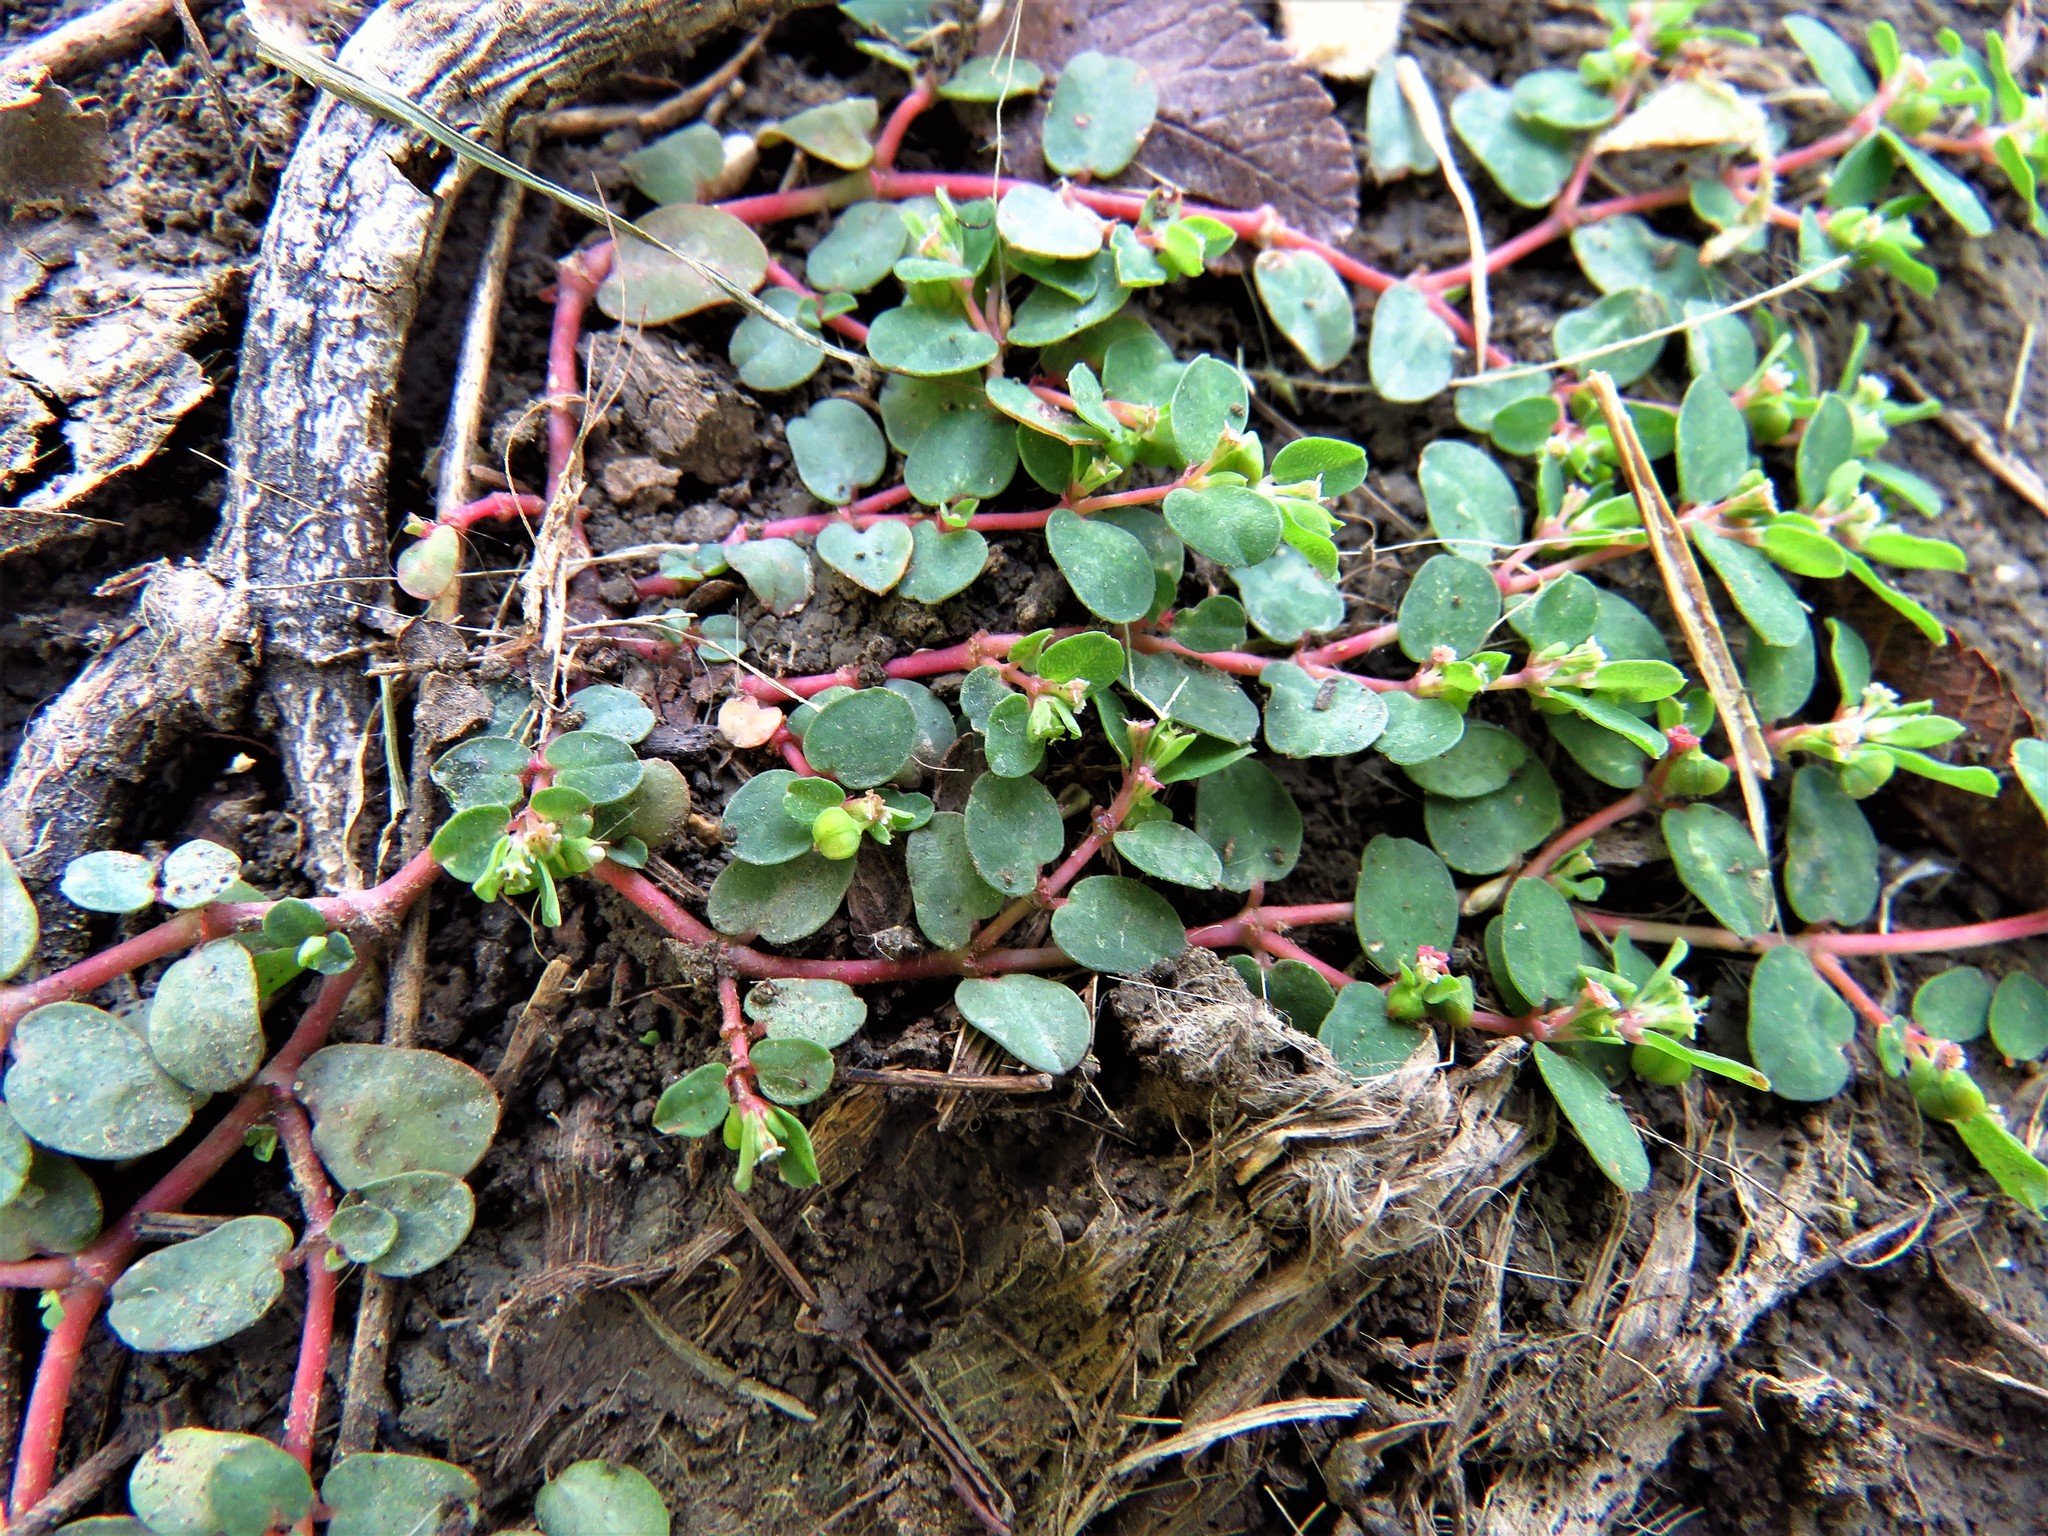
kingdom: Plantae
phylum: Tracheophyta
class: Magnoliopsida
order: Malpighiales
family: Euphorbiaceae
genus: Euphorbia
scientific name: Euphorbia serpens
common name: Matted sandmat
